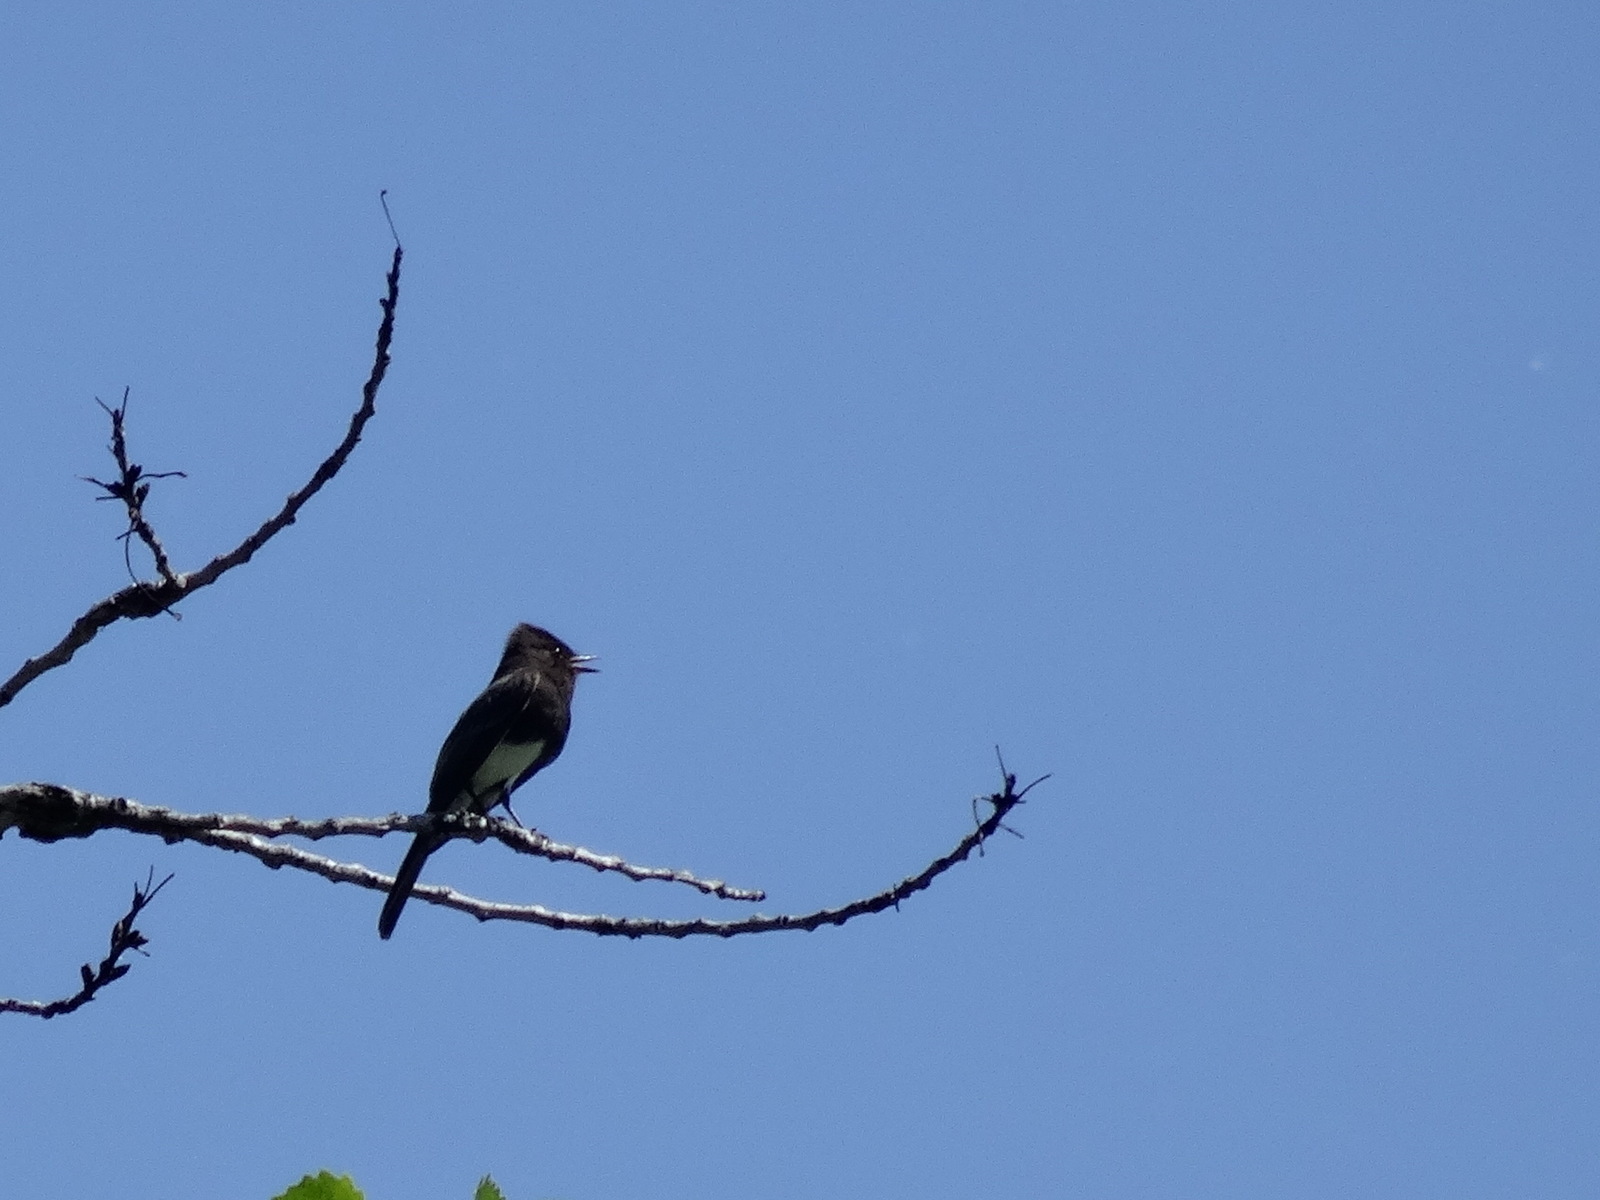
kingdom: Animalia
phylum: Chordata
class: Aves
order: Passeriformes
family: Tyrannidae
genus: Sayornis
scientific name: Sayornis nigricans
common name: Black phoebe
